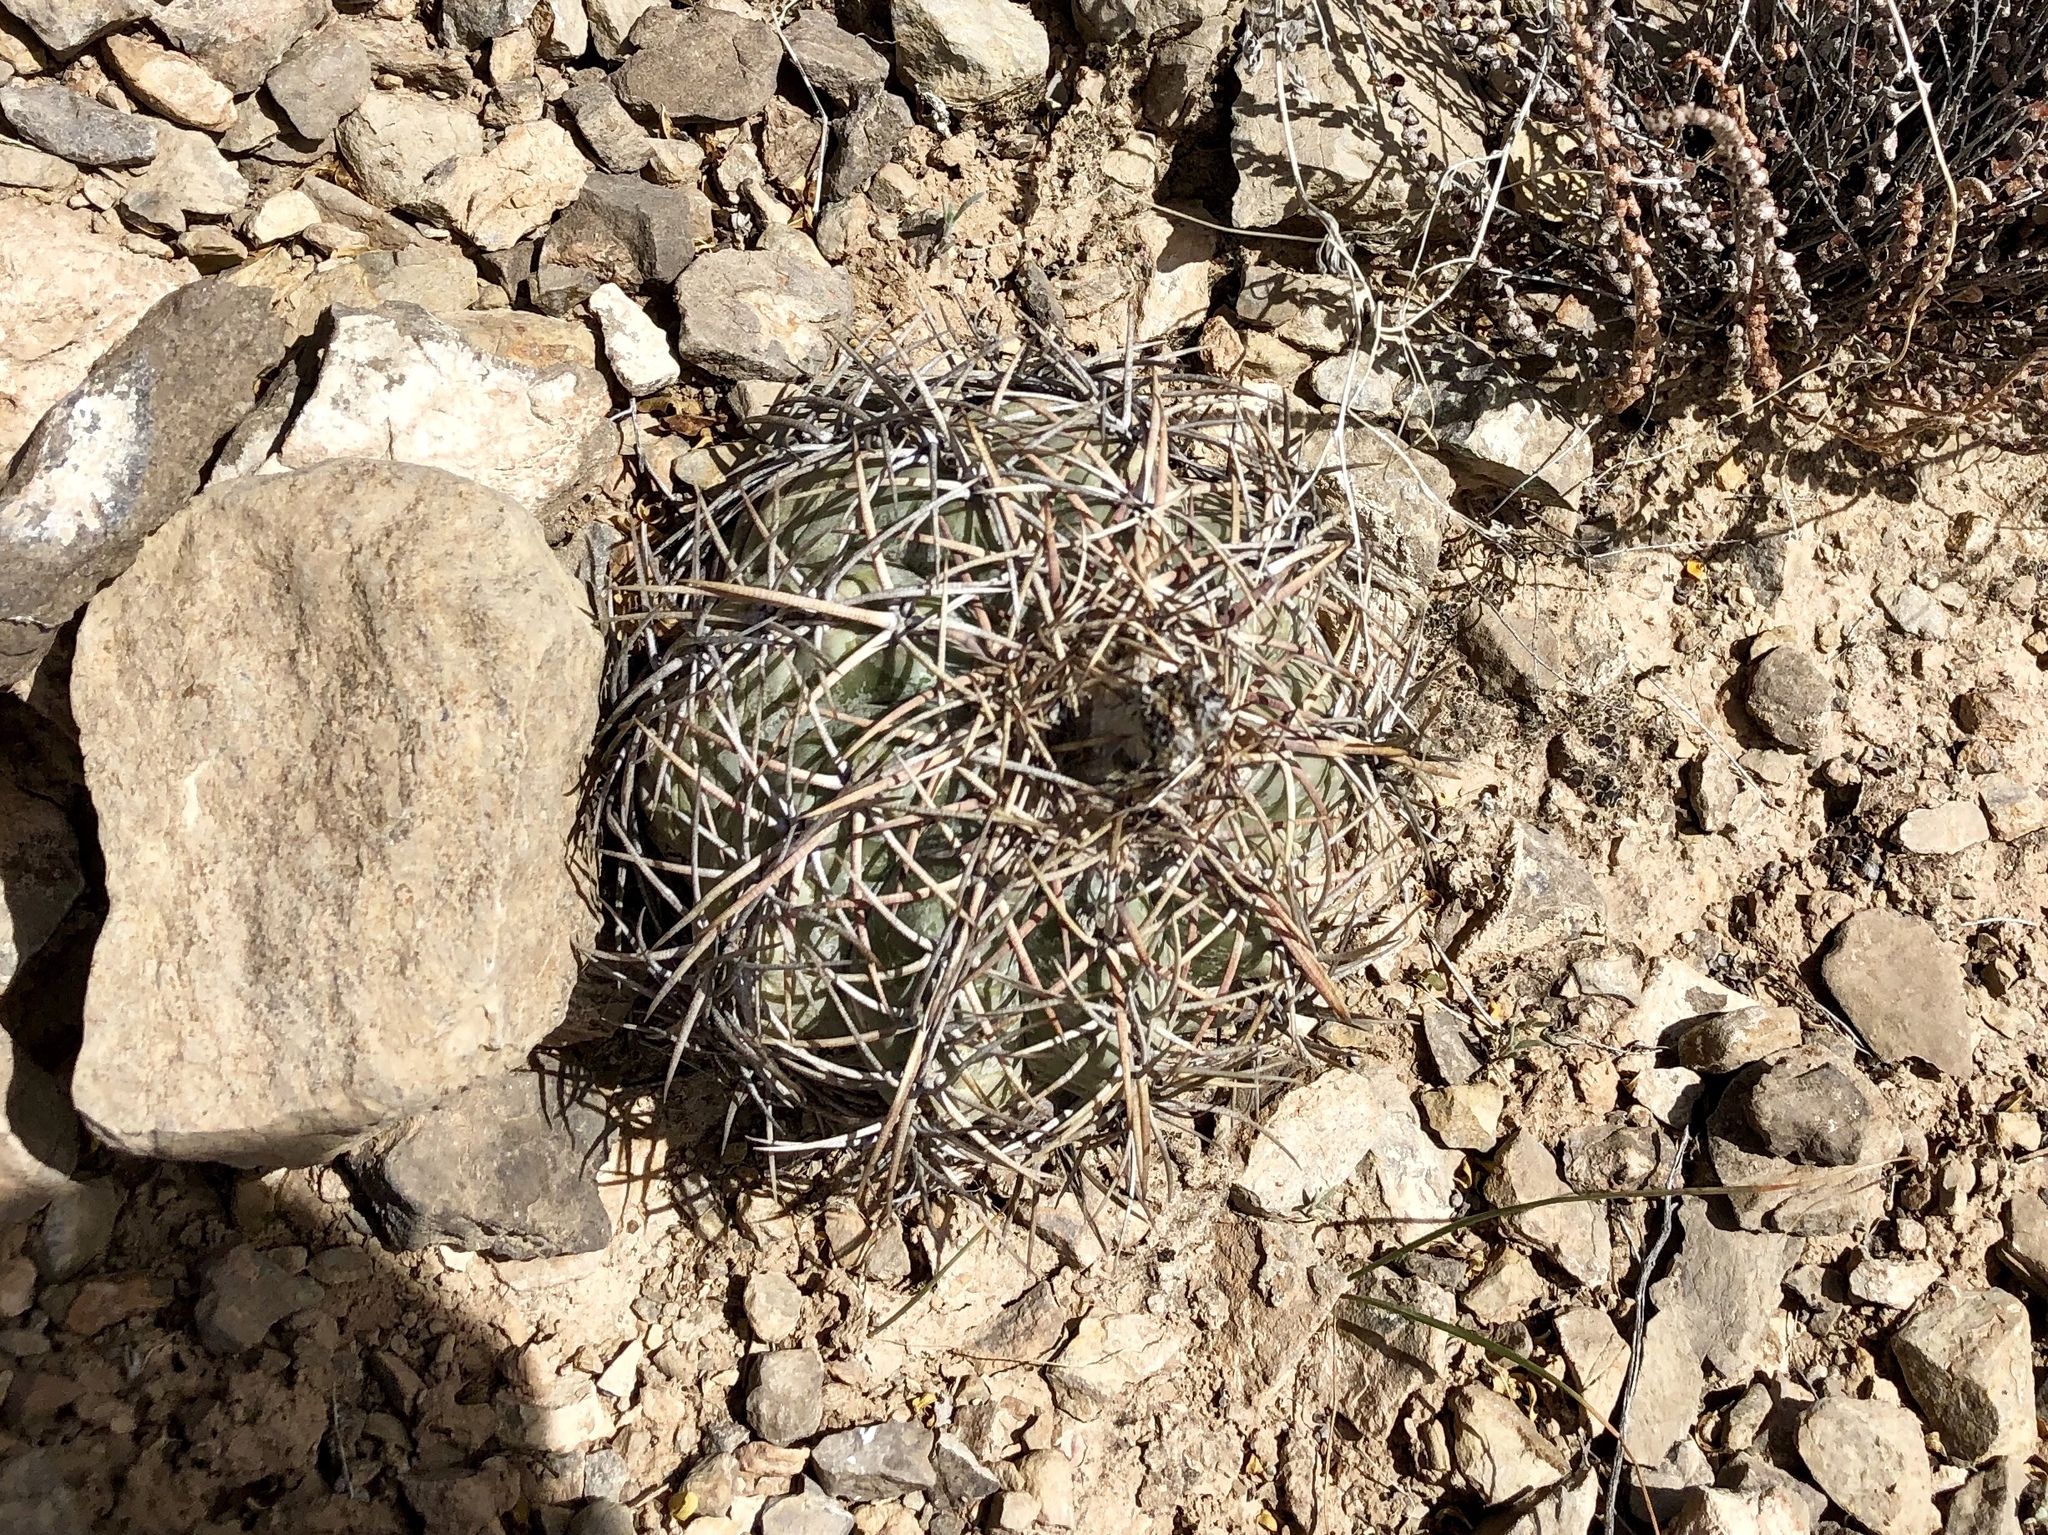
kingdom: Plantae
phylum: Tracheophyta
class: Magnoliopsida
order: Caryophyllales
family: Cactaceae
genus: Echinocactus
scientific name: Echinocactus horizonthalonius
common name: Devilshead
